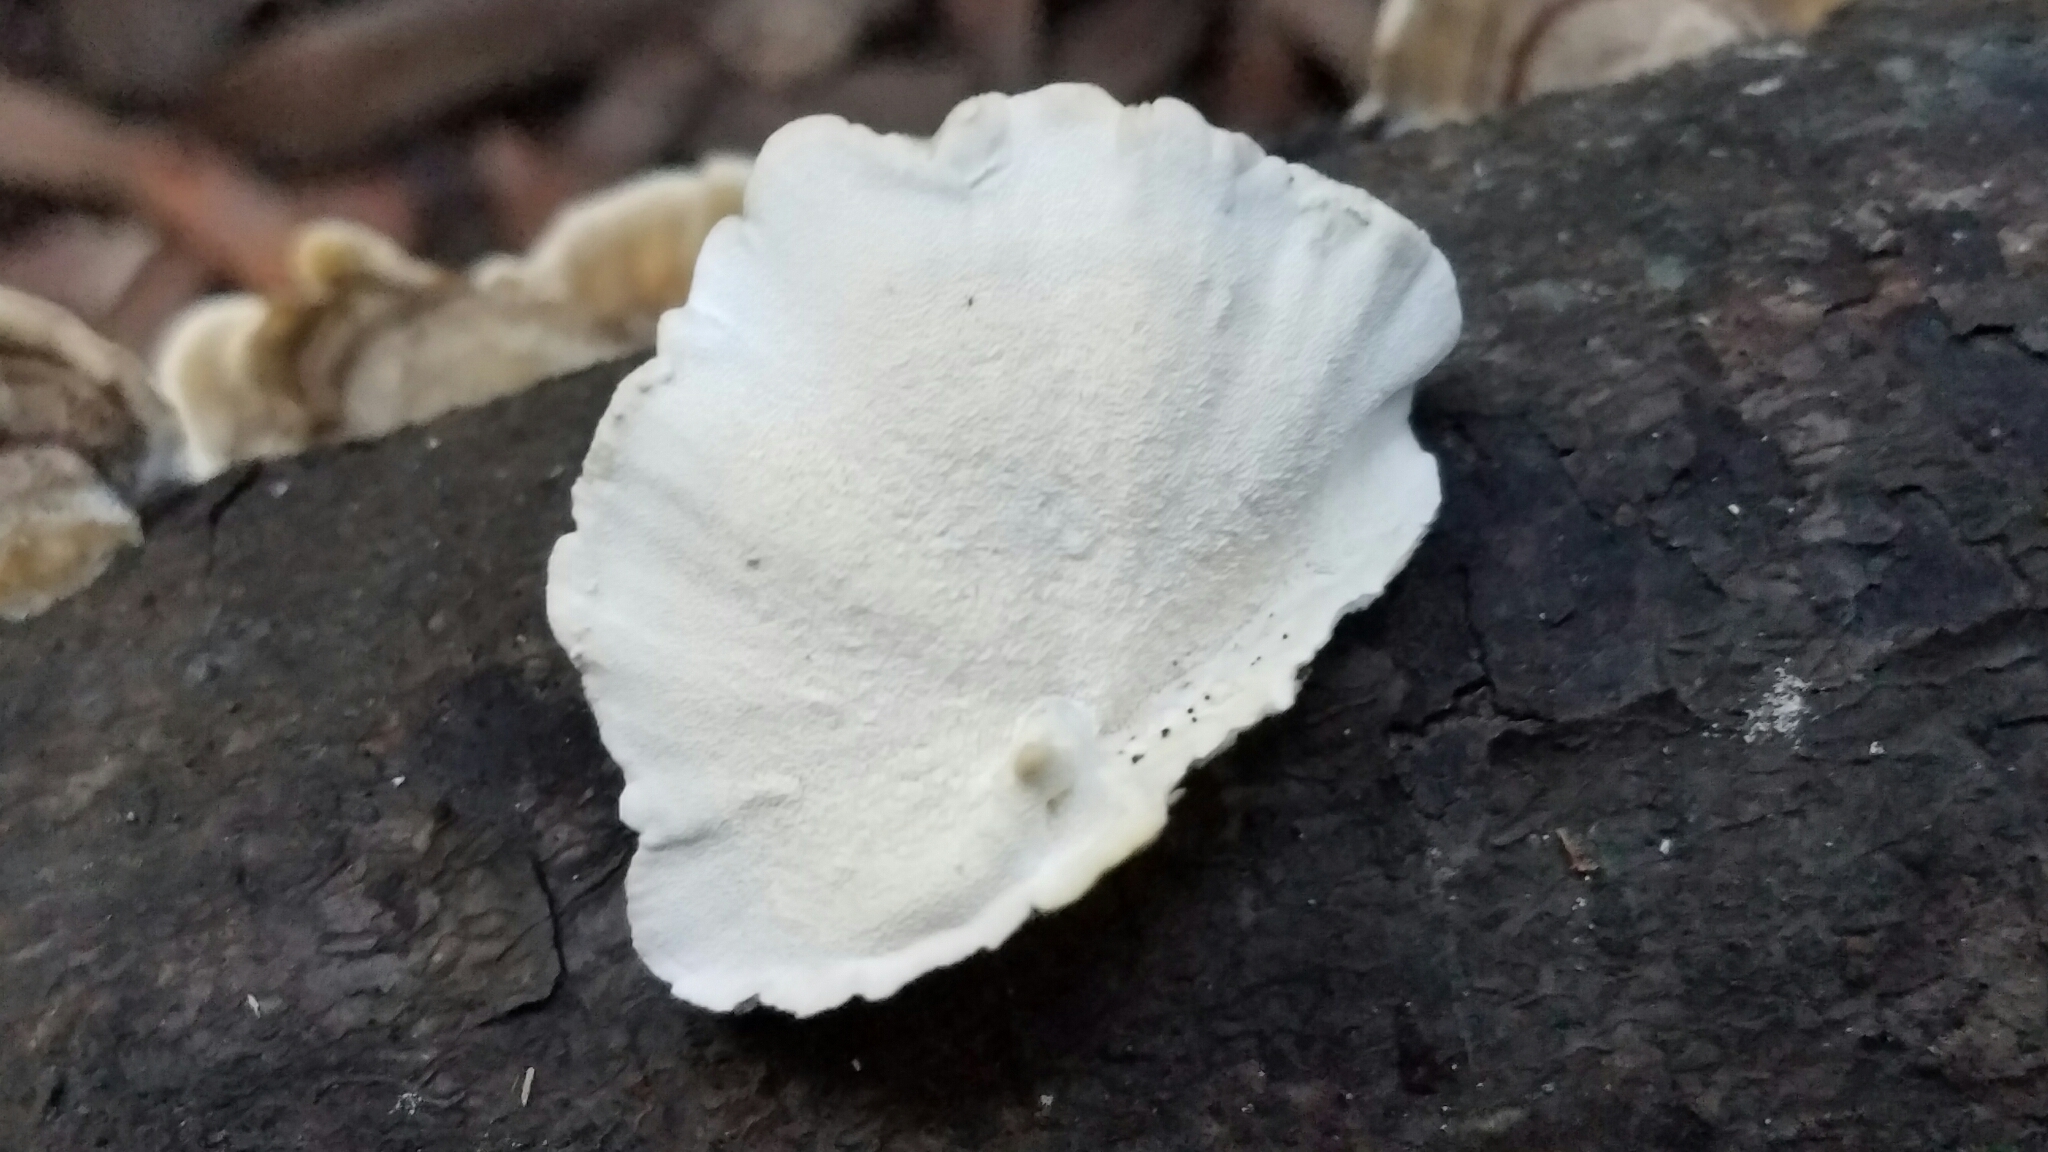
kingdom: Fungi
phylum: Basidiomycota
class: Agaricomycetes
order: Polyporales
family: Polyporaceae
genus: Trametes
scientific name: Trametes versicolor
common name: Turkeytail
